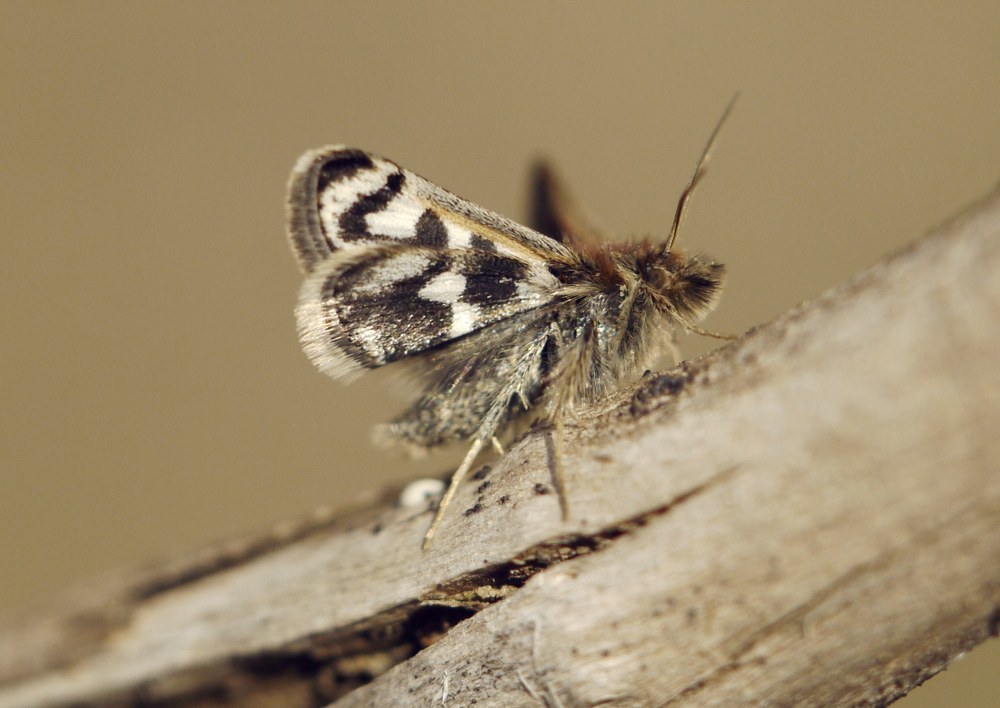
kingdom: Animalia
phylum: Arthropoda
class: Insecta
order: Lepidoptera
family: Crambidae
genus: Titanio
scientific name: Titanio normalis
